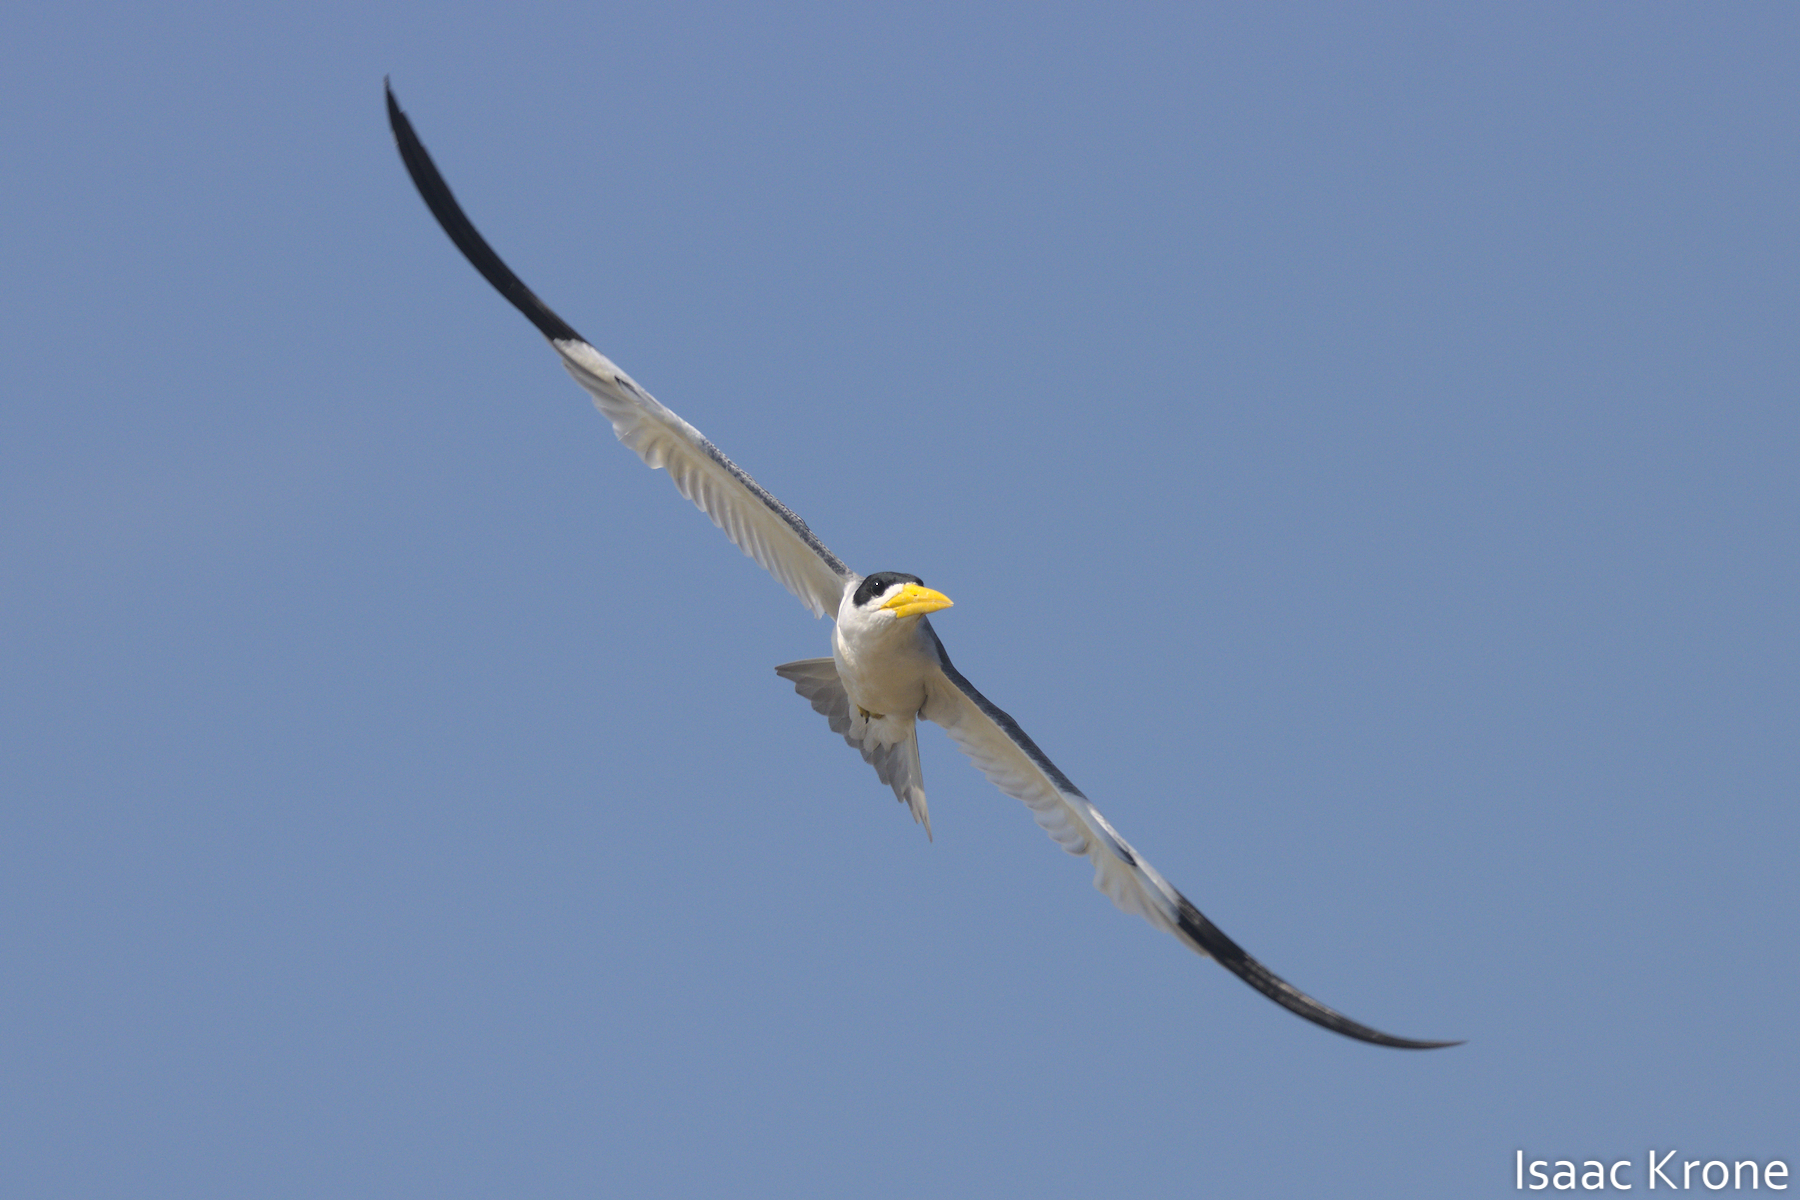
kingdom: Animalia
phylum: Chordata
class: Aves
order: Charadriiformes
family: Laridae
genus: Phaetusa
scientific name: Phaetusa simplex
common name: Large-billed tern
